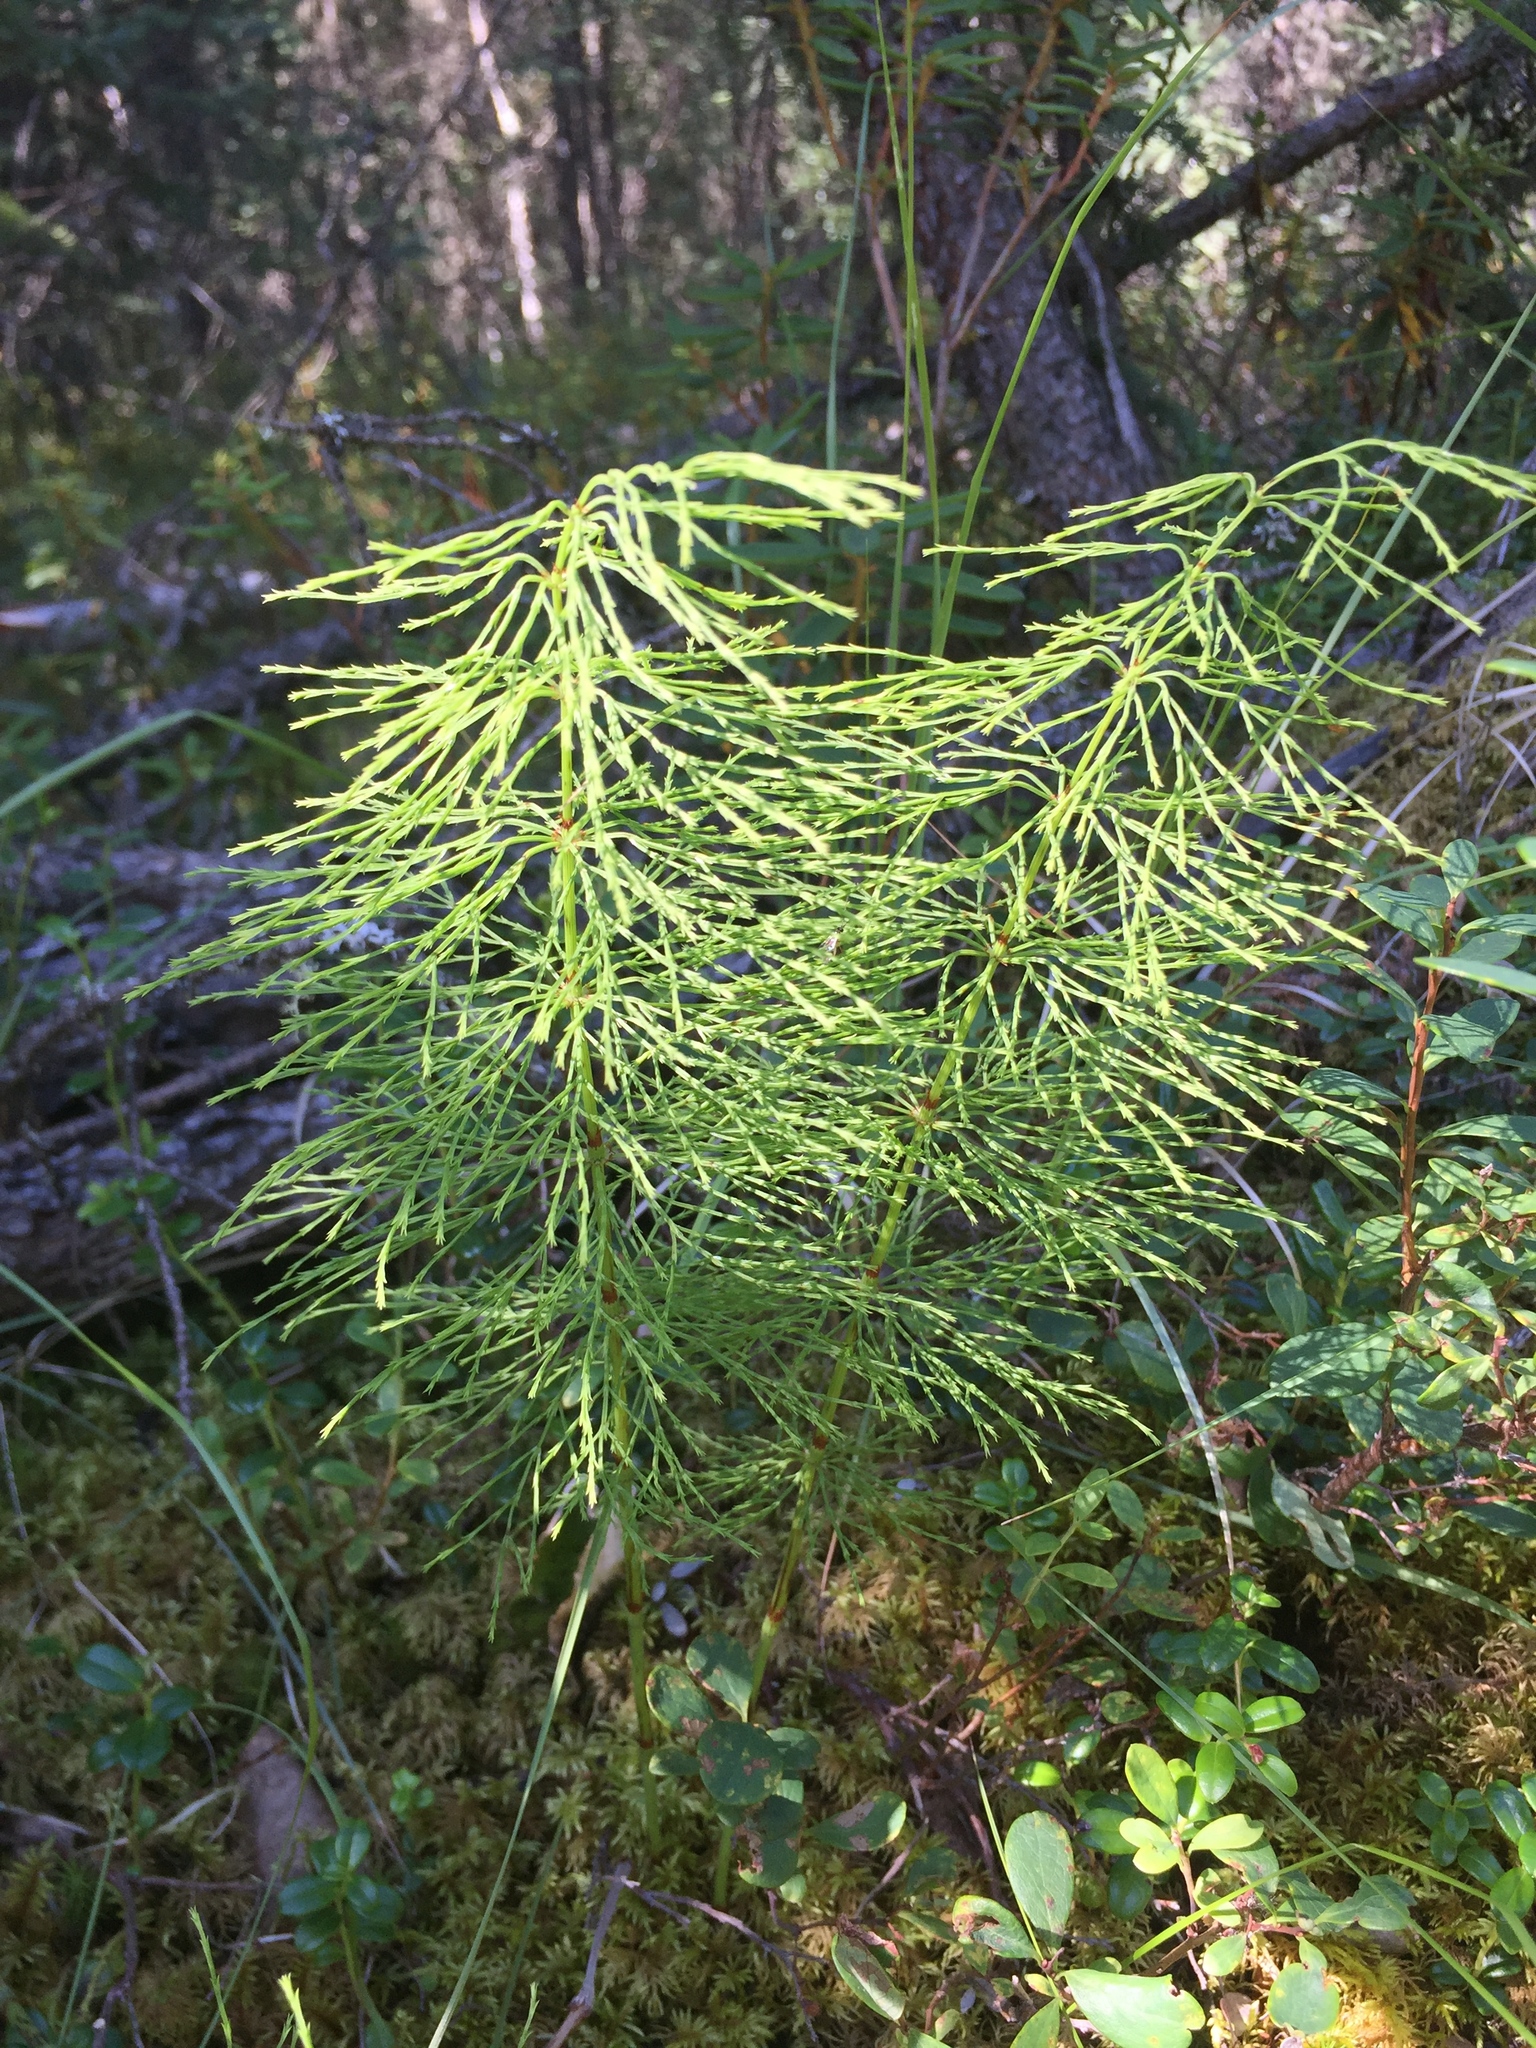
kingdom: Plantae
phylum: Tracheophyta
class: Polypodiopsida
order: Equisetales
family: Equisetaceae
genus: Equisetum
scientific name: Equisetum sylvaticum
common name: Wood horsetail
